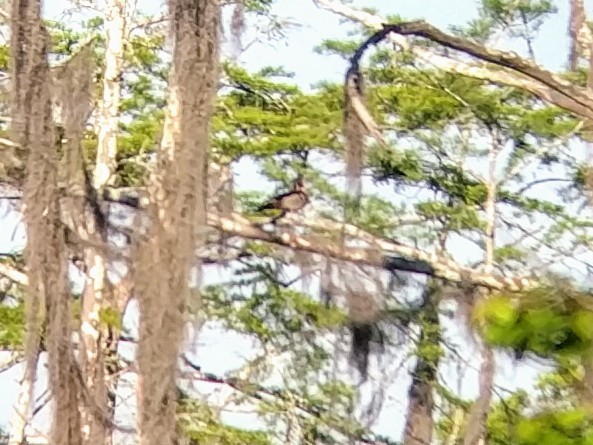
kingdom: Animalia
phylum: Chordata
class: Aves
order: Anseriformes
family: Anatidae
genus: Aix
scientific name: Aix sponsa
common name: Wood duck
